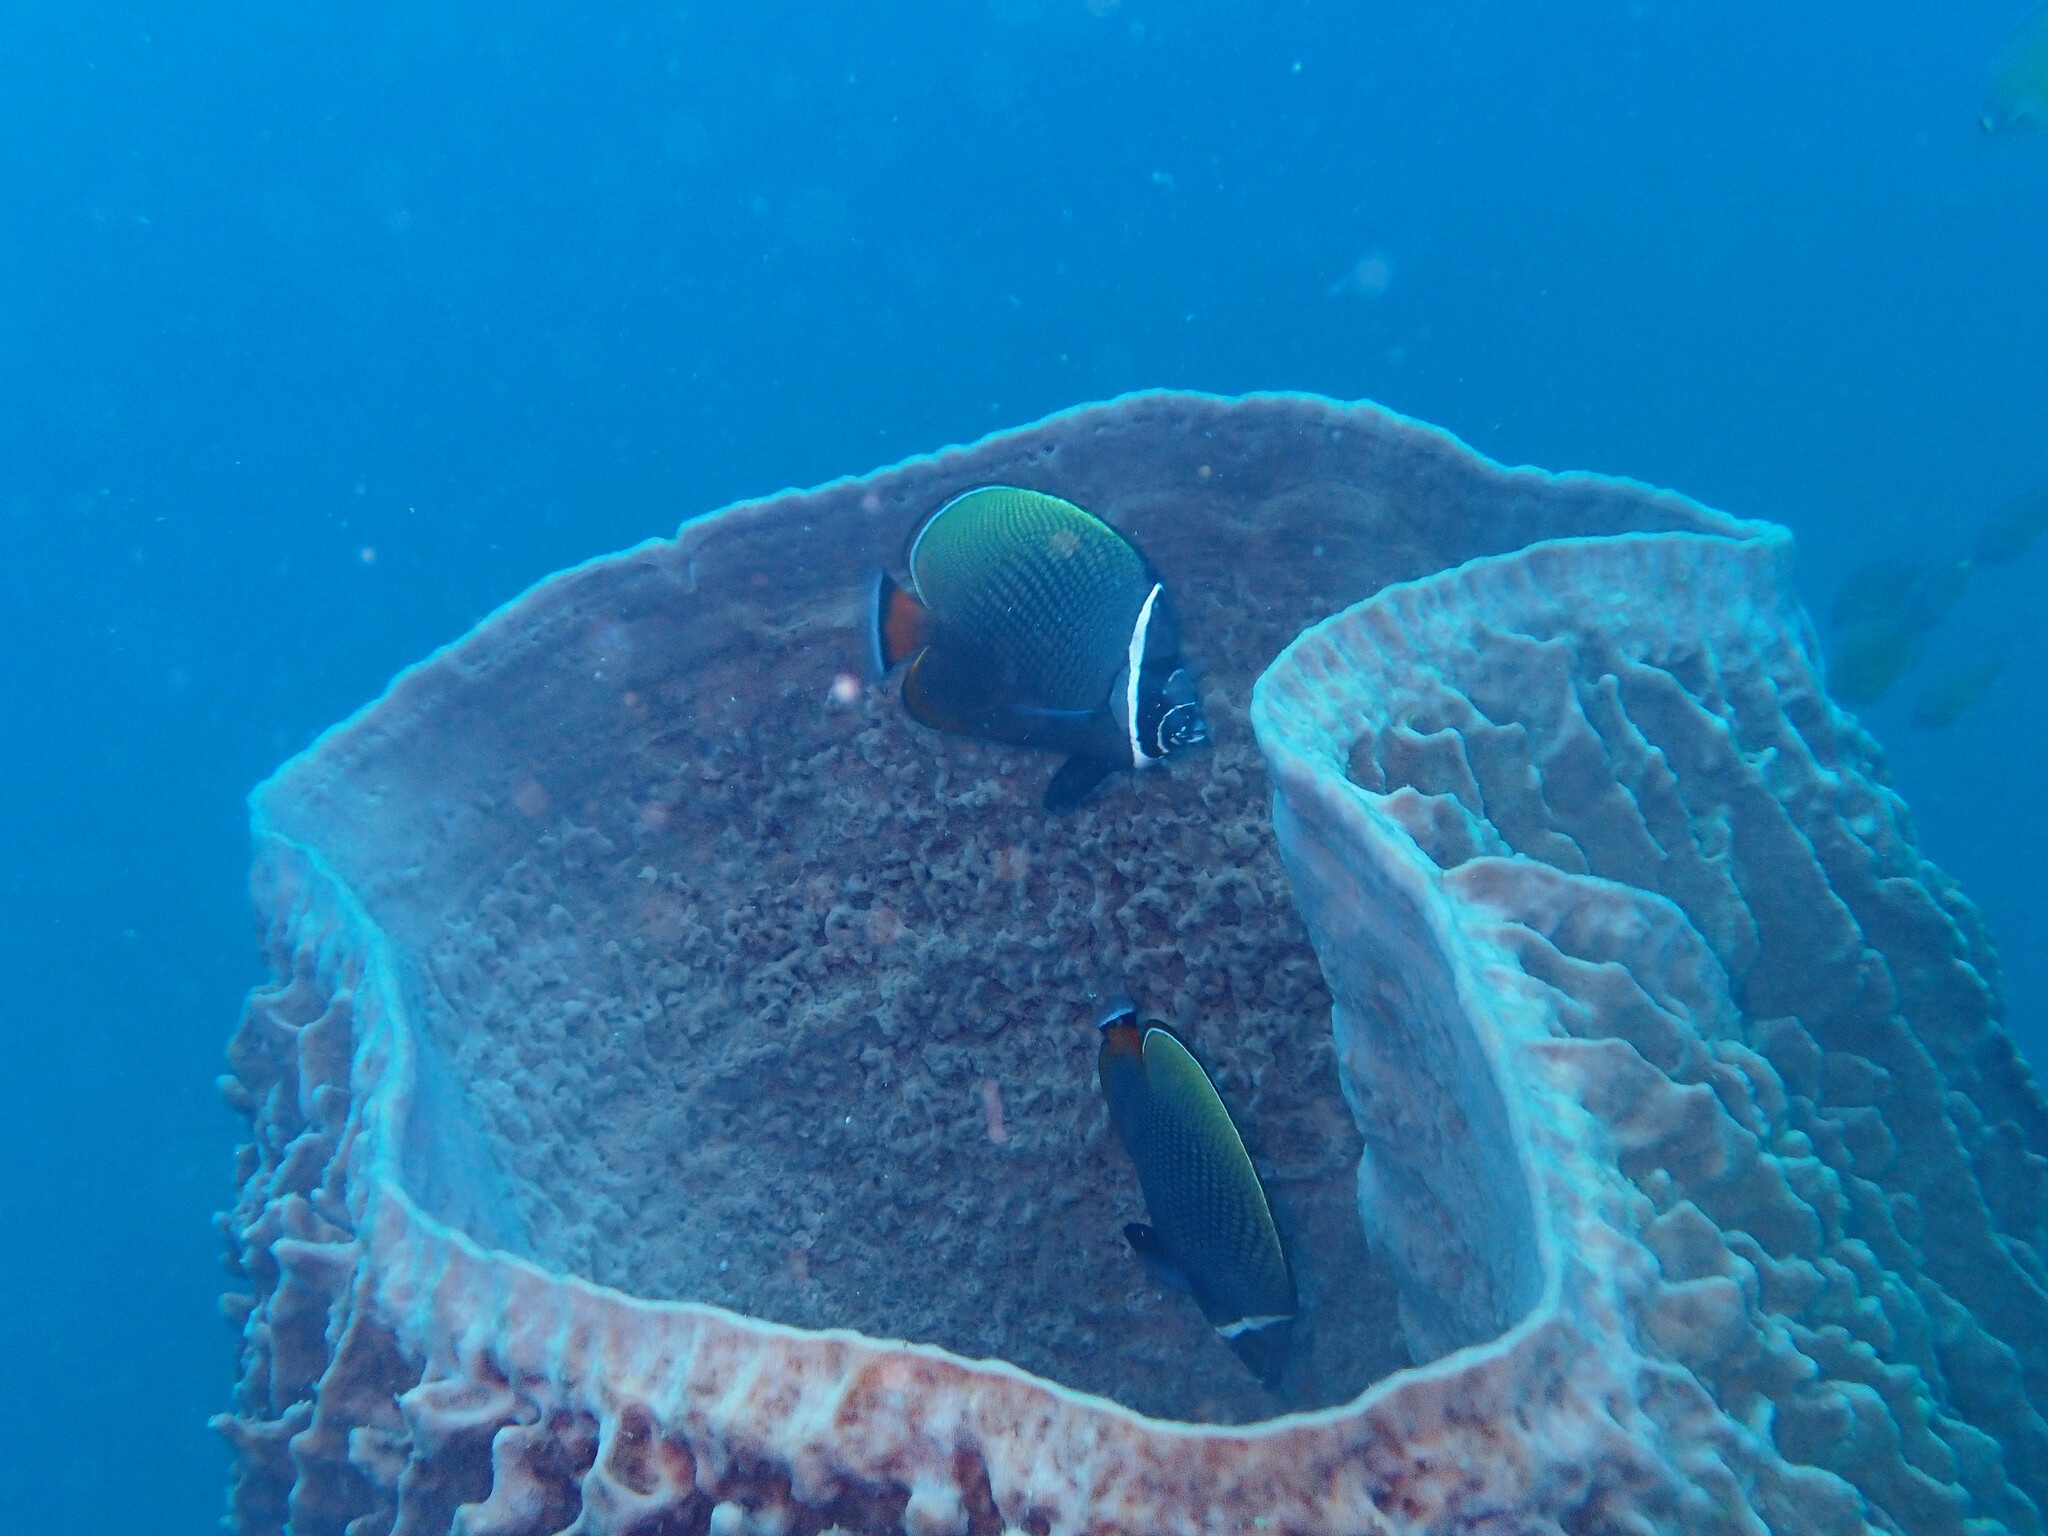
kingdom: Animalia
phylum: Chordata
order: Perciformes
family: Chaetodontidae
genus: Chaetodon
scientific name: Chaetodon collare
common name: Redtail butterflyfish
